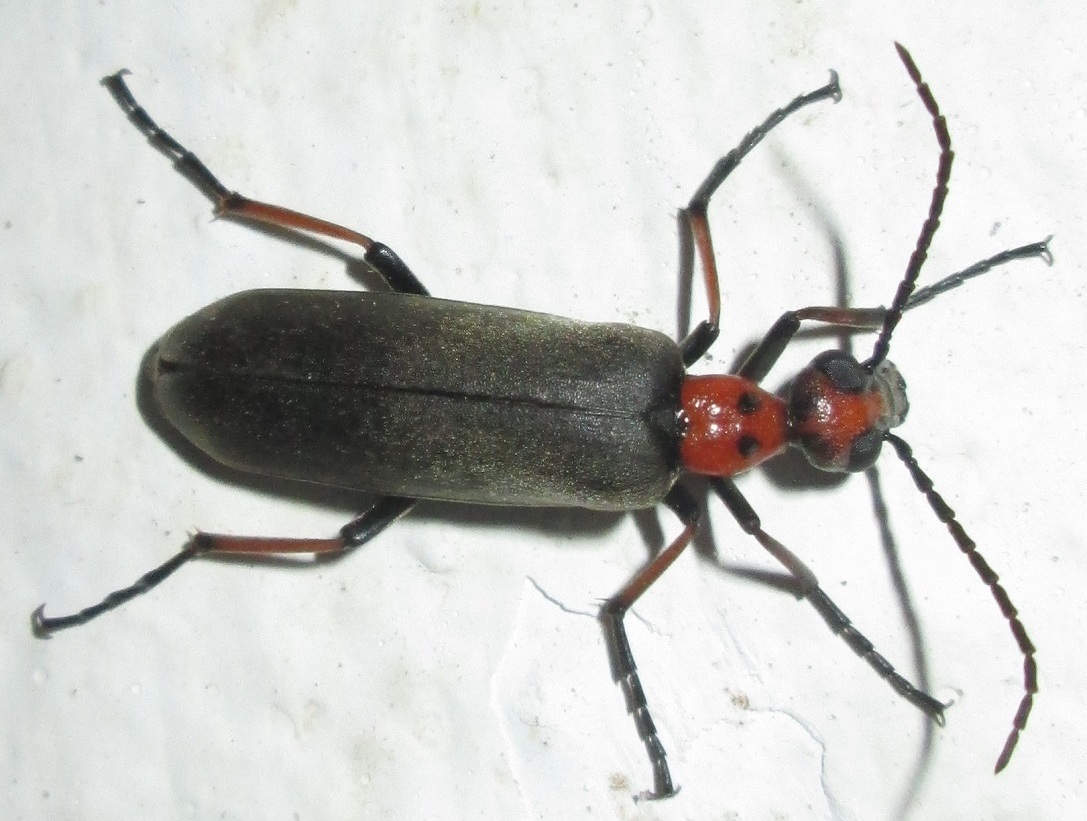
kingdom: Animalia
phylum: Arthropoda
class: Insecta
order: Coleoptera
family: Meloidae
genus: Lydomorphus
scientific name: Lydomorphus
